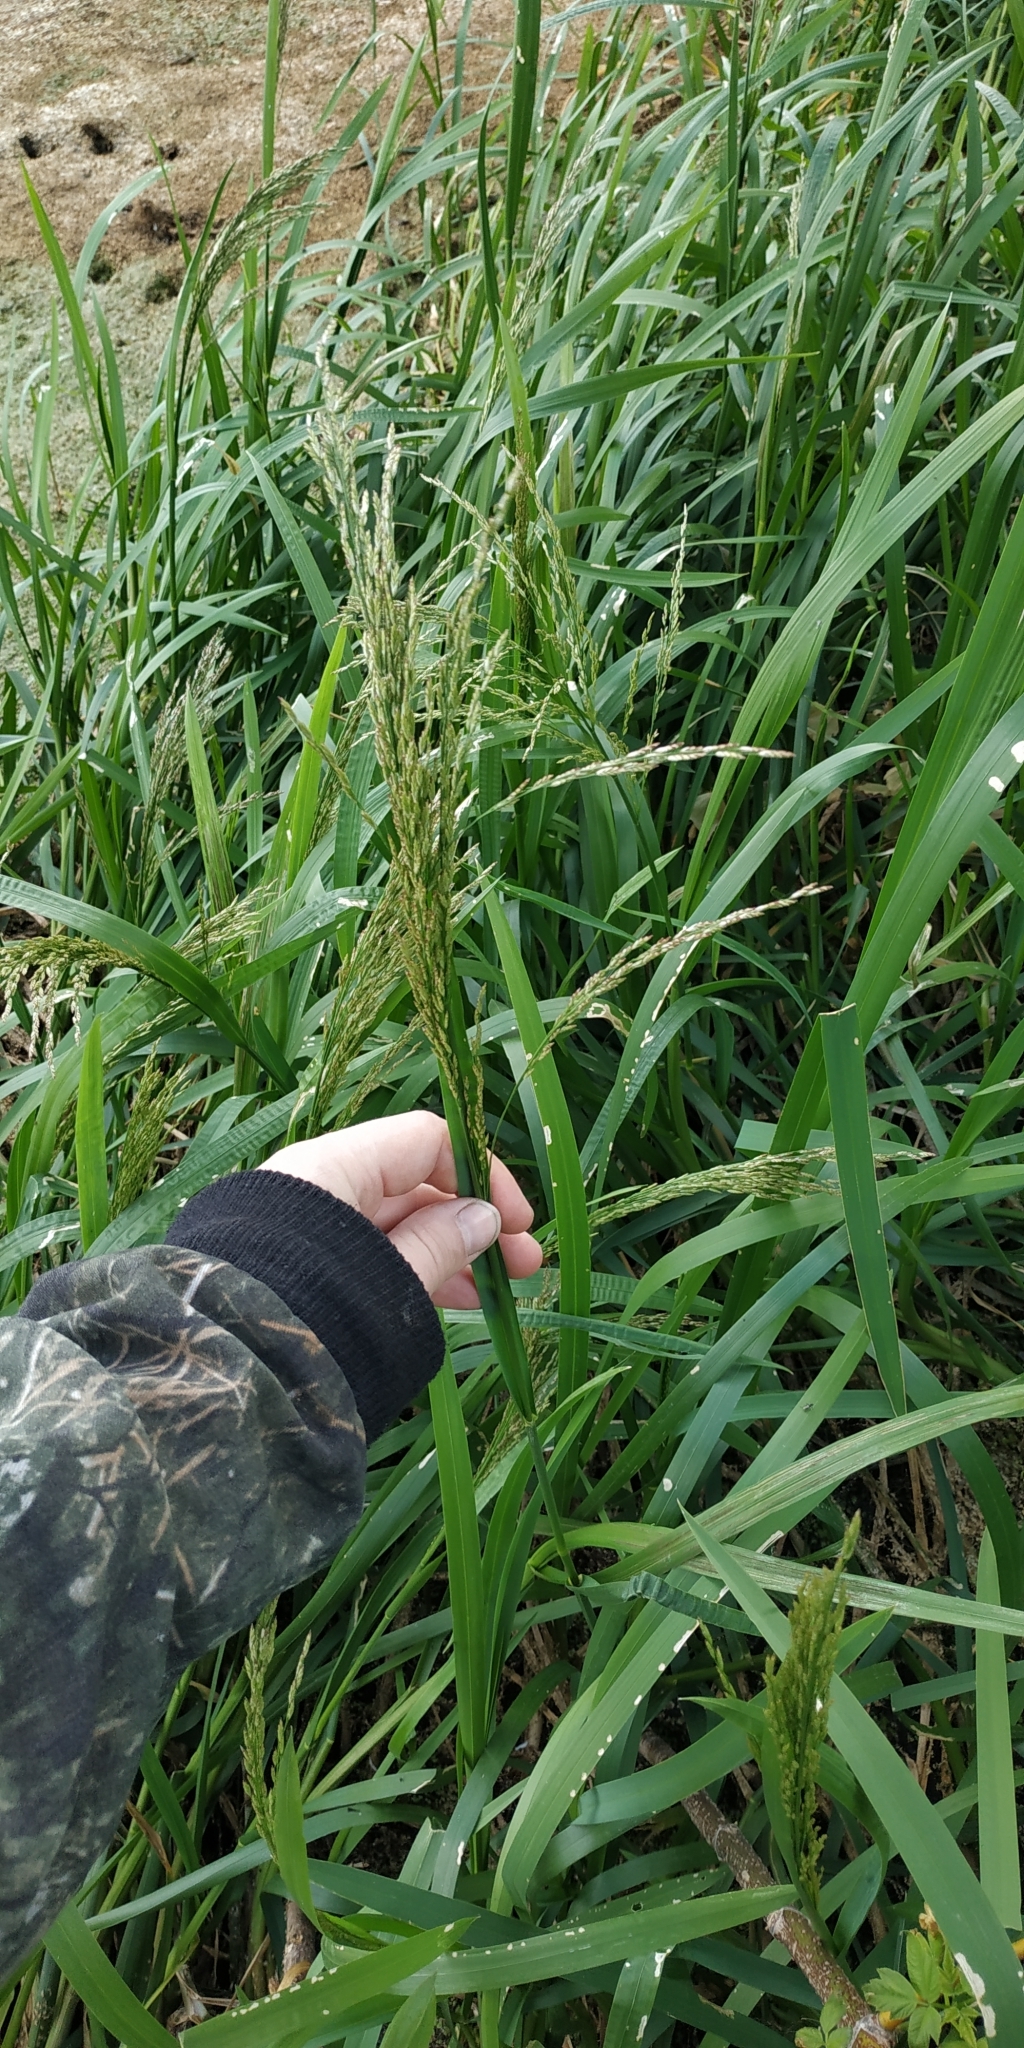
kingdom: Plantae
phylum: Tracheophyta
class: Liliopsida
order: Poales
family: Poaceae
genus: Glyceria
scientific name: Glyceria maxima
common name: Reed mannagrass
